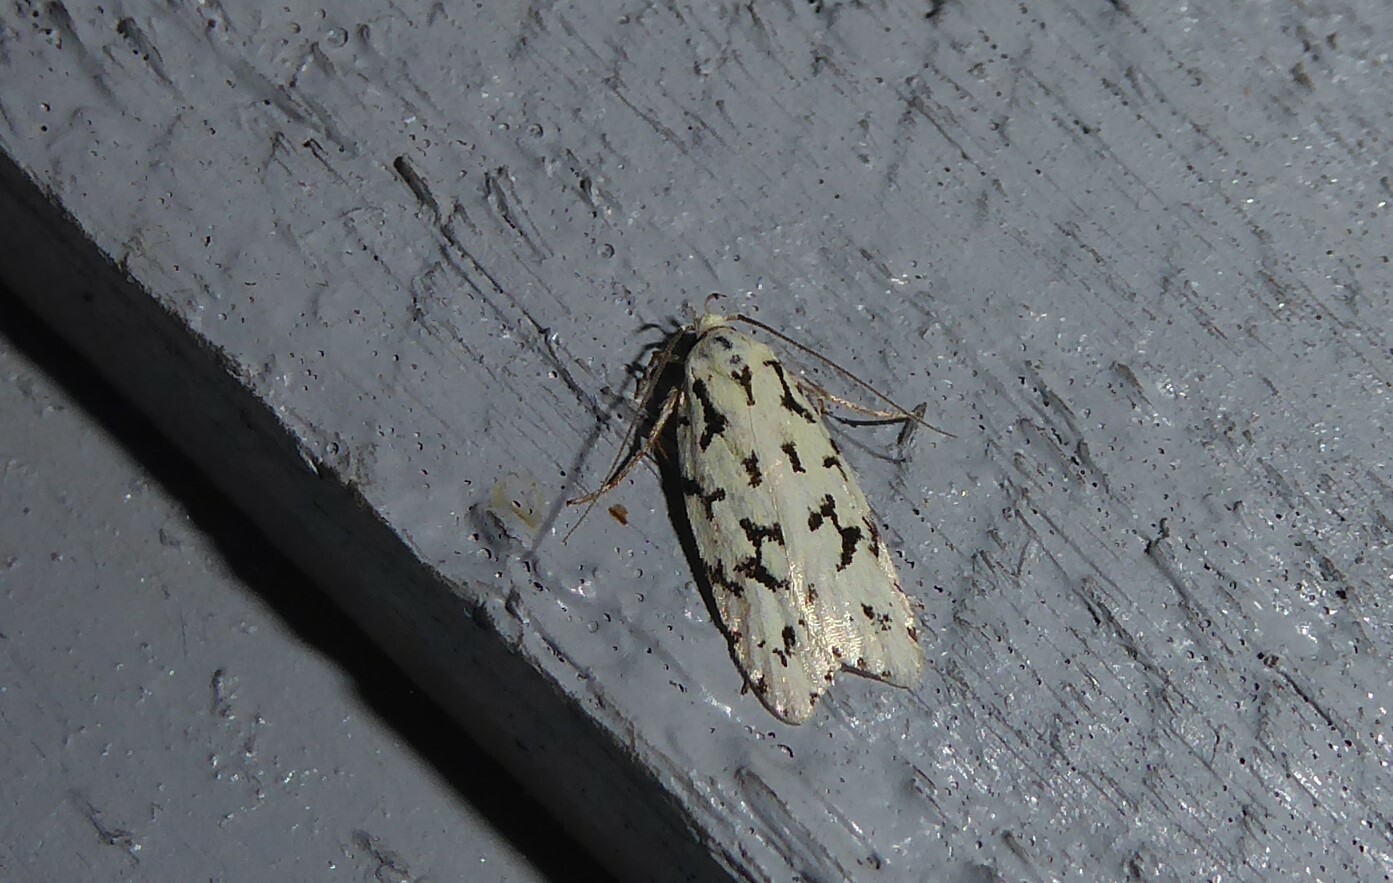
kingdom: Animalia
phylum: Arthropoda
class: Insecta
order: Lepidoptera
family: Oecophoridae
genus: Izatha
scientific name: Izatha huttoni
